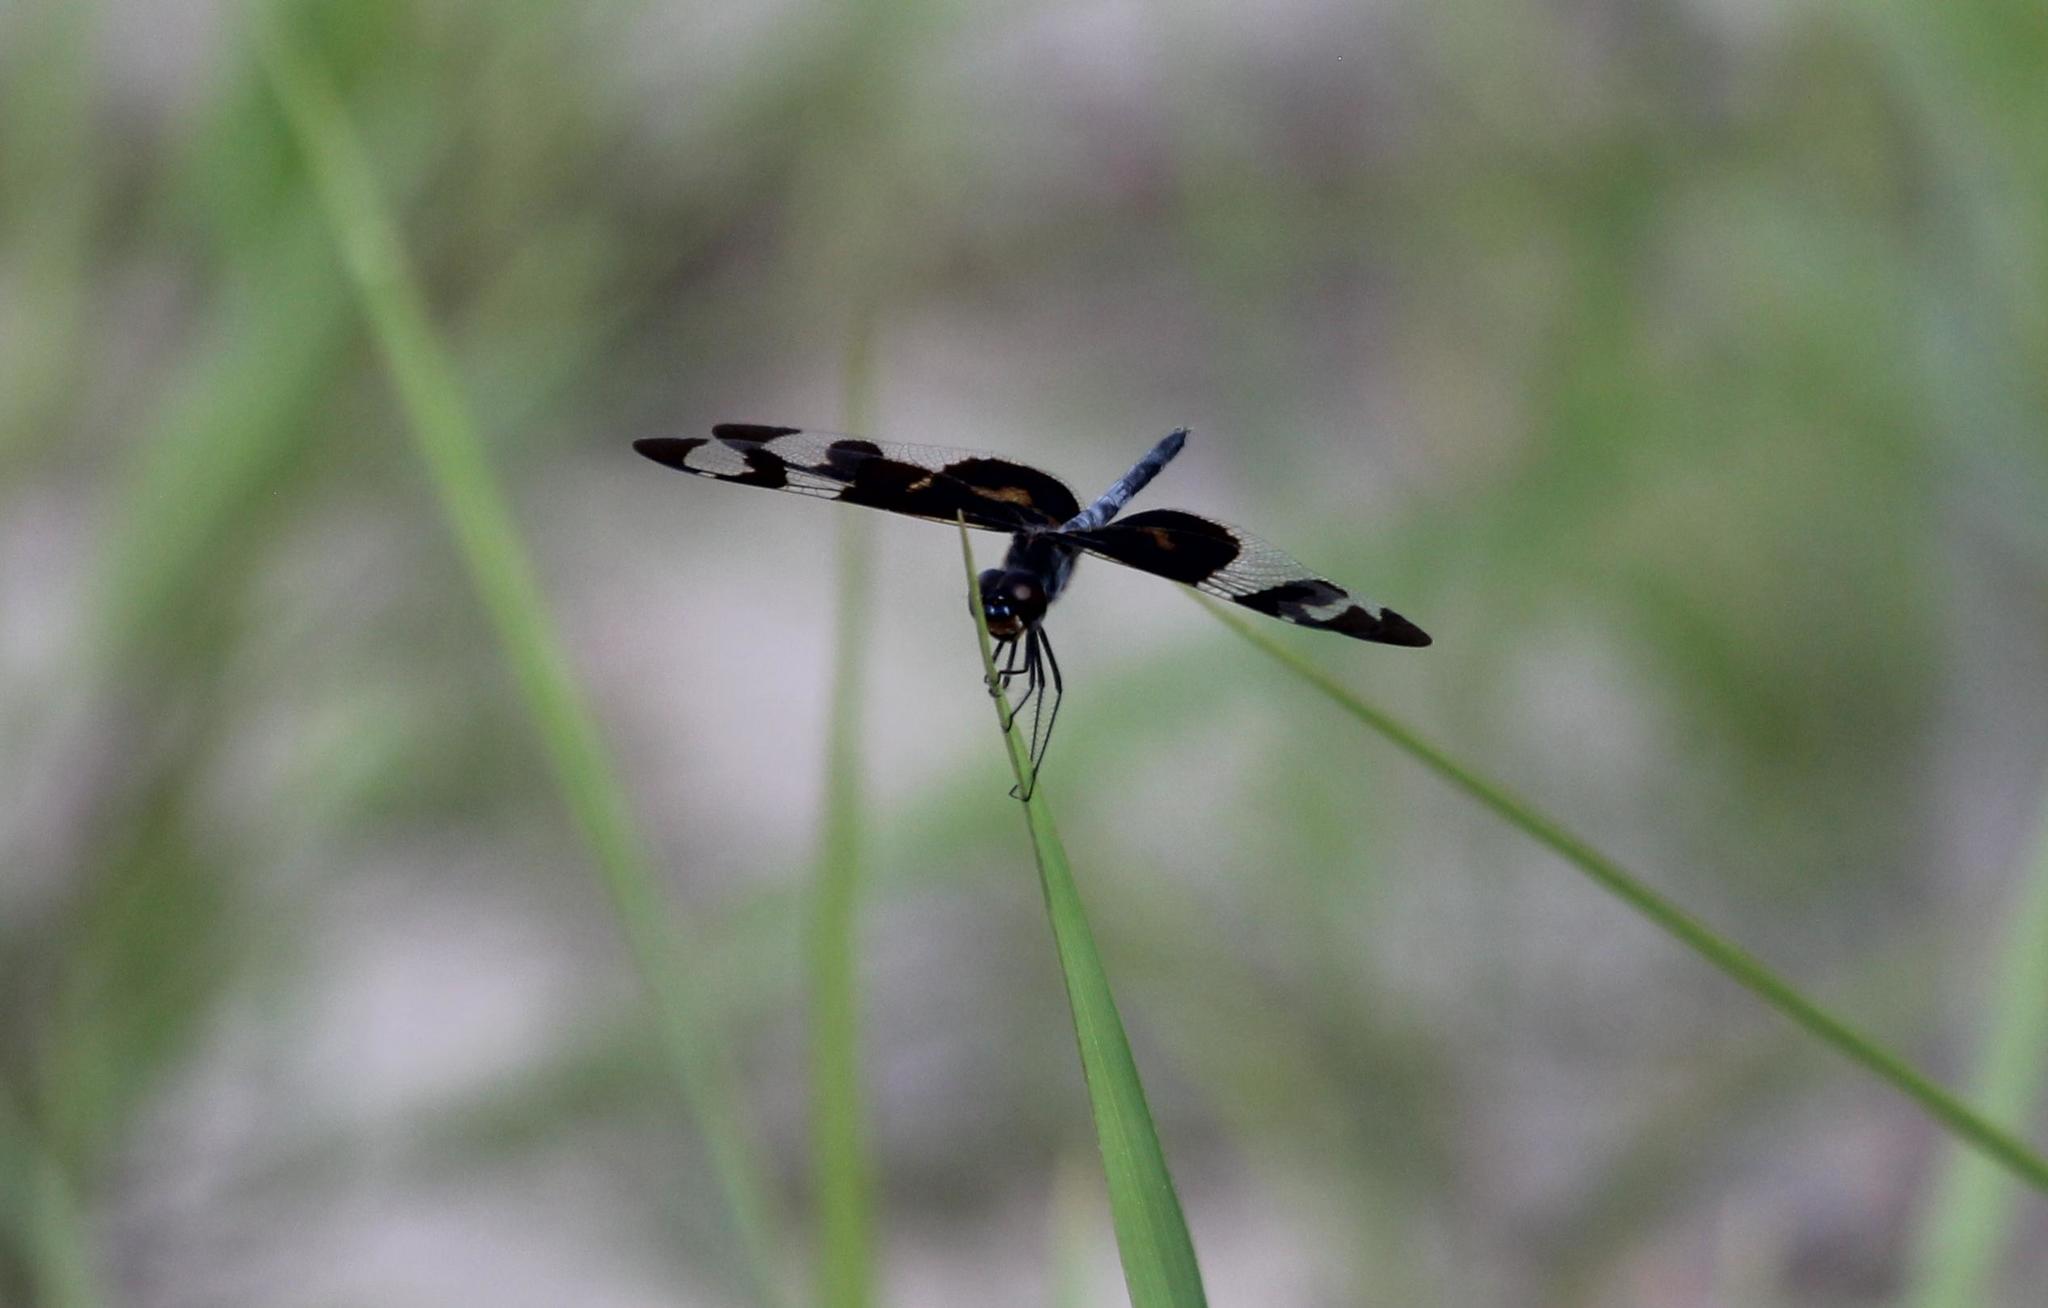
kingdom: Animalia
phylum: Arthropoda
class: Insecta
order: Odonata
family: Libellulidae
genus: Celithemis
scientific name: Celithemis fasciata
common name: Banded pennant
